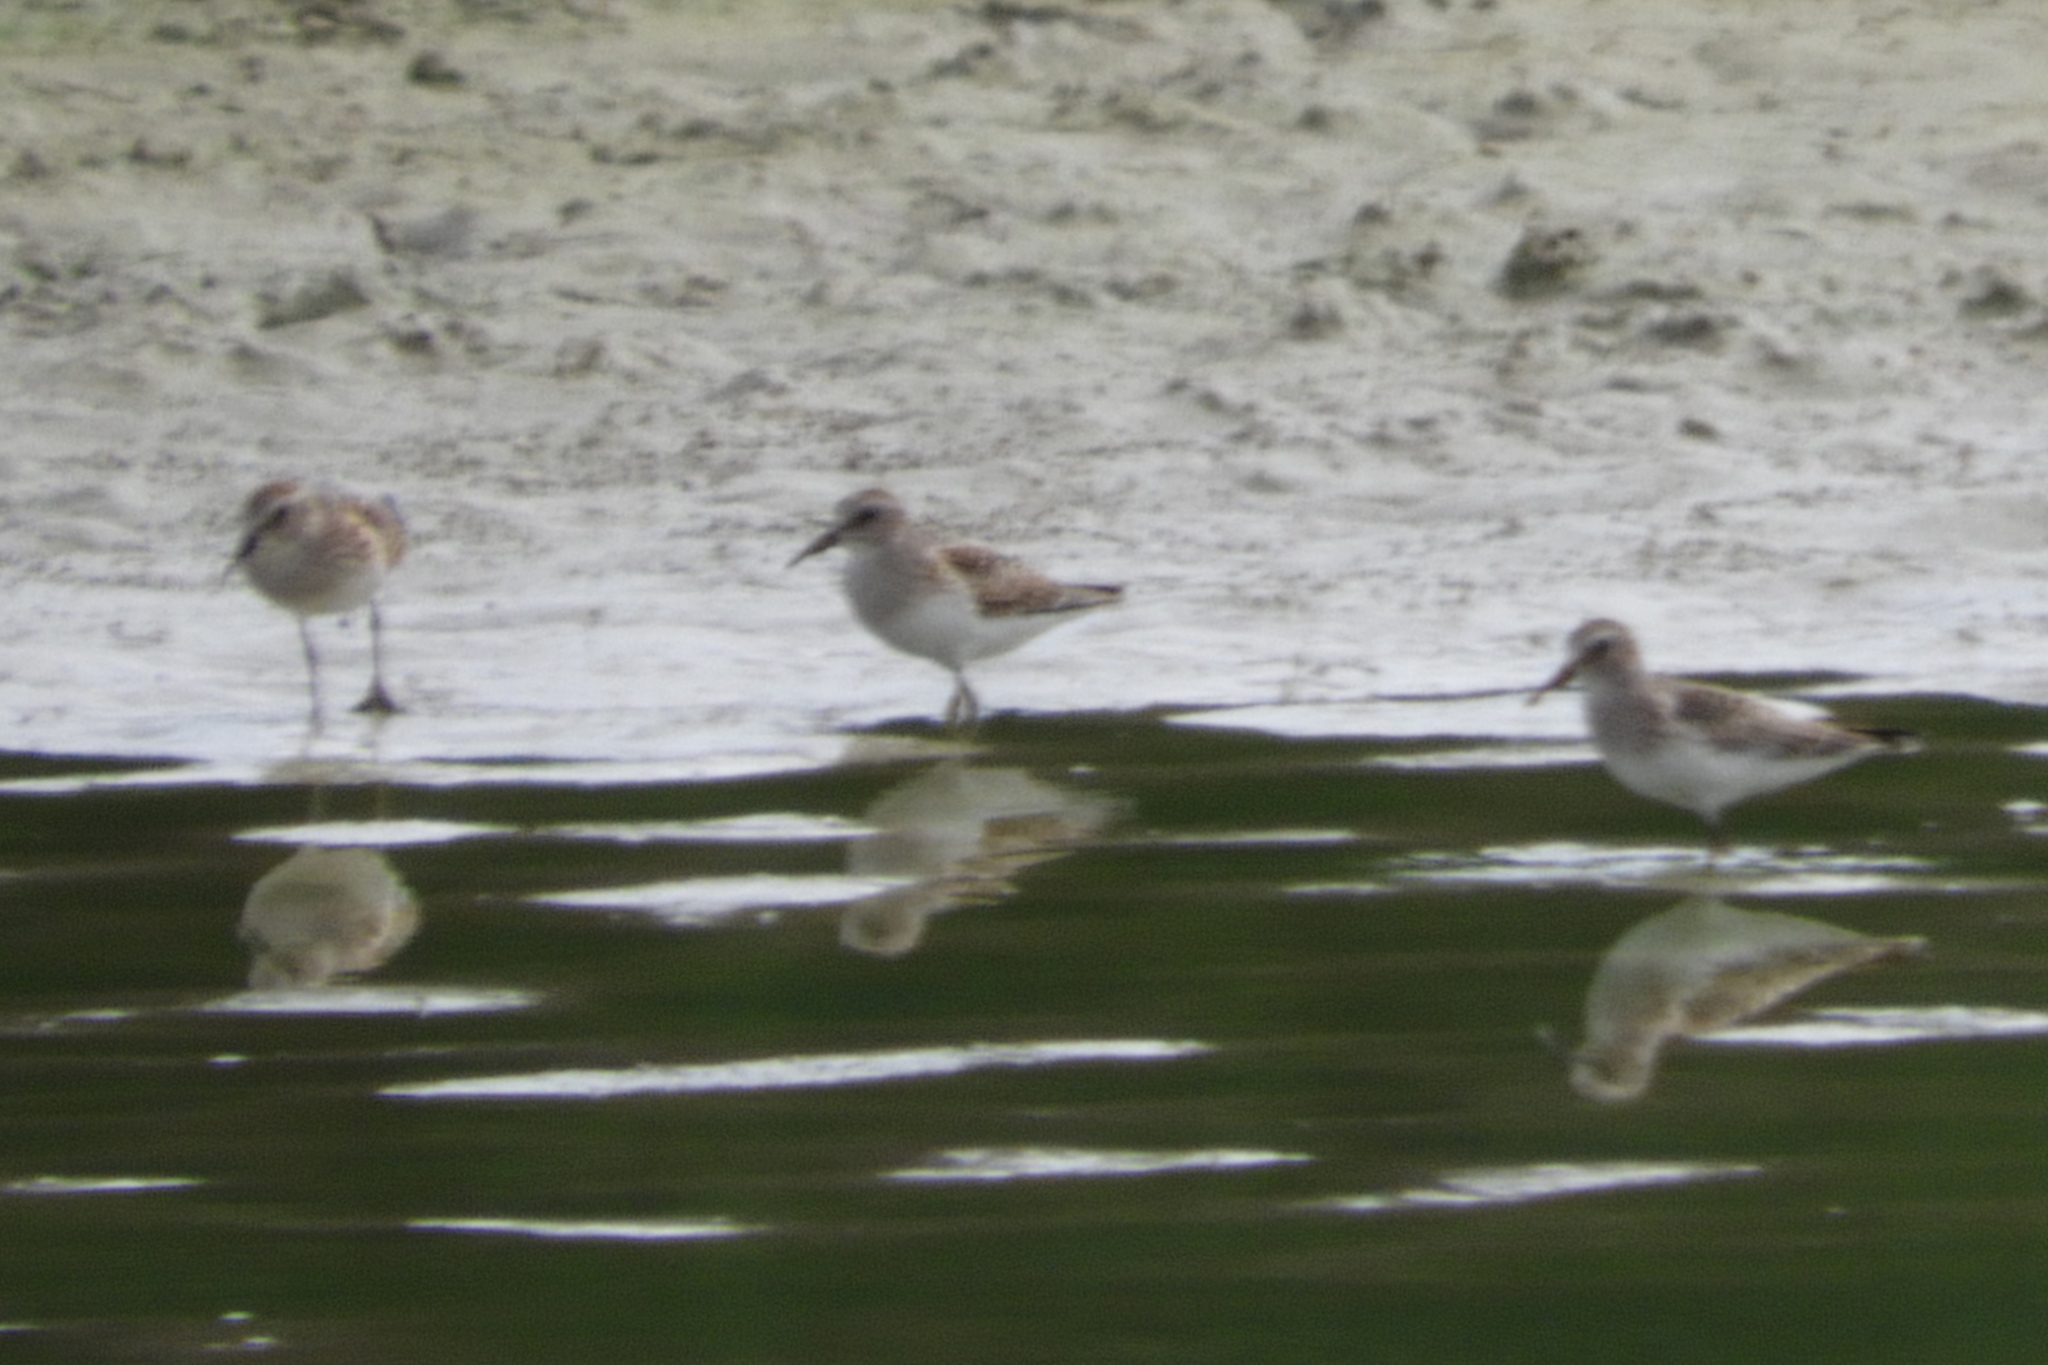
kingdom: Animalia
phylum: Chordata
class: Aves
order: Charadriiformes
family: Scolopacidae
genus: Calidris
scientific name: Calidris melanotos
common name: Pectoral sandpiper
